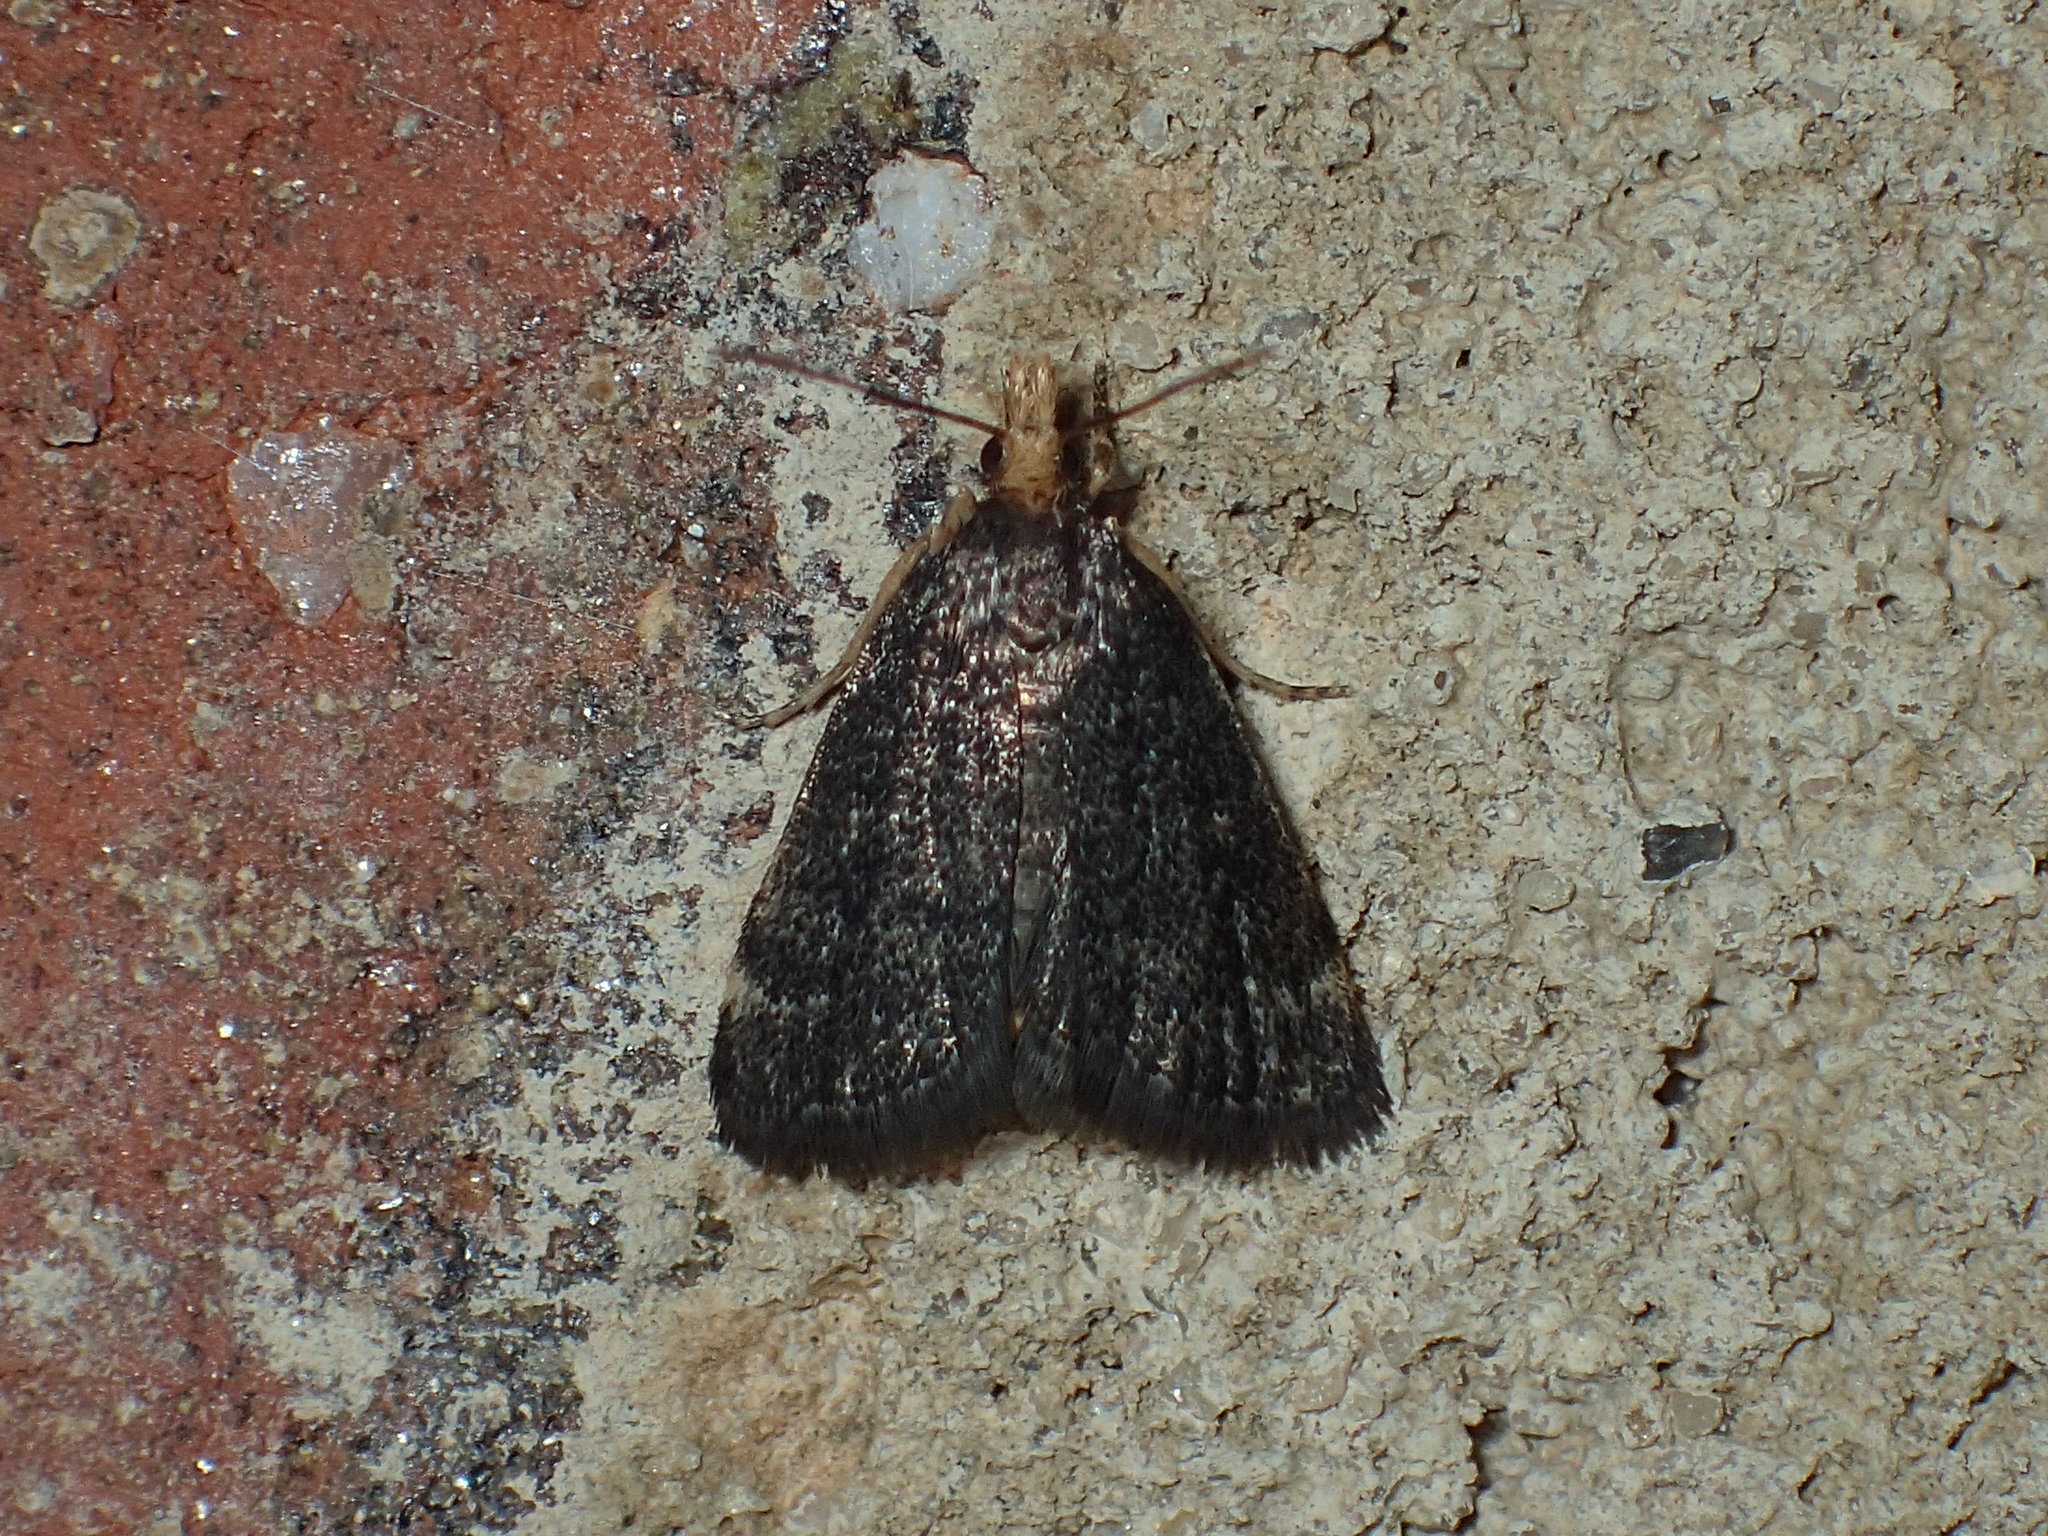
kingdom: Animalia
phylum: Arthropoda
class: Insecta
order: Lepidoptera
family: Crambidae
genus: Pyrausta
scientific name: Pyrausta merrickalis
